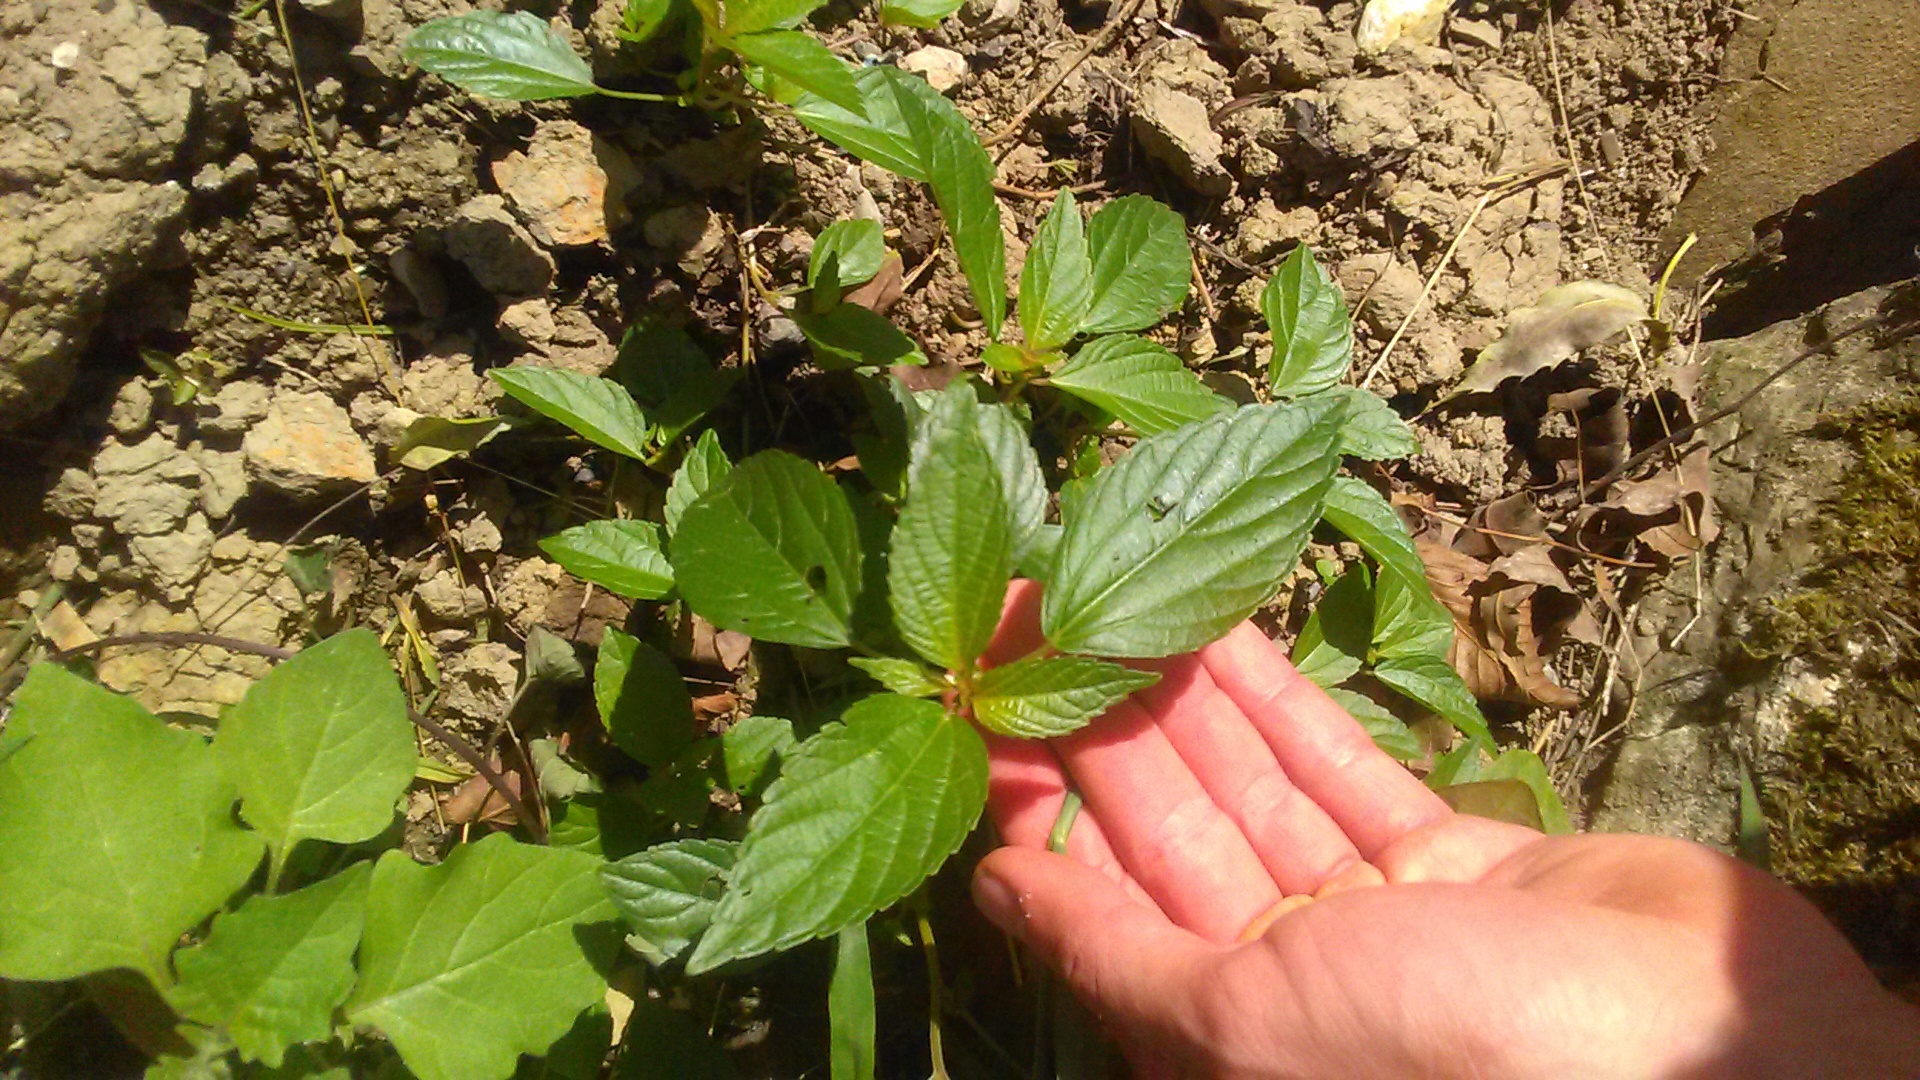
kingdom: Plantae
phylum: Tracheophyta
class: Magnoliopsida
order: Malpighiales
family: Euphorbiaceae
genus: Acalypha
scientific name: Acalypha australis
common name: Asian copperleaf
